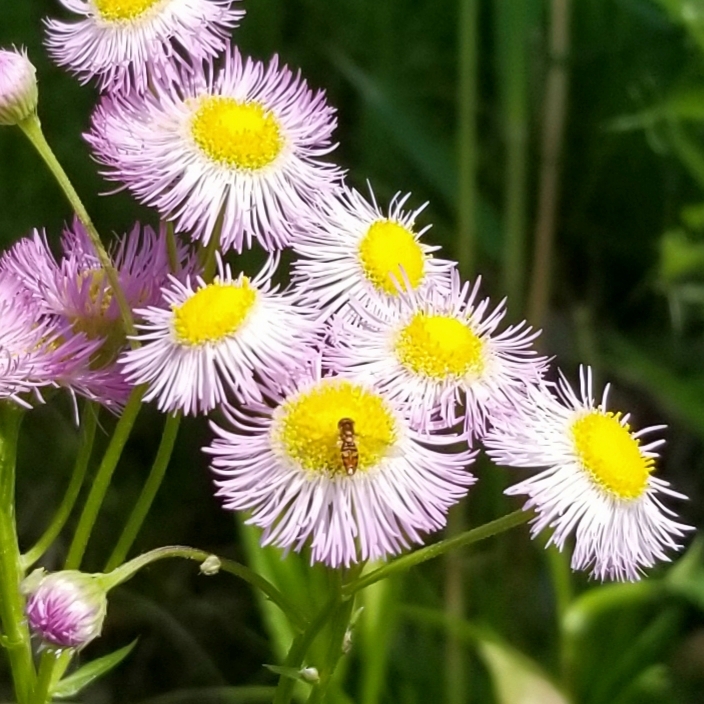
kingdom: Animalia
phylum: Arthropoda
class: Insecta
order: Diptera
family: Syrphidae
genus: Toxomerus
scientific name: Toxomerus marginatus
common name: Syrphid fly
